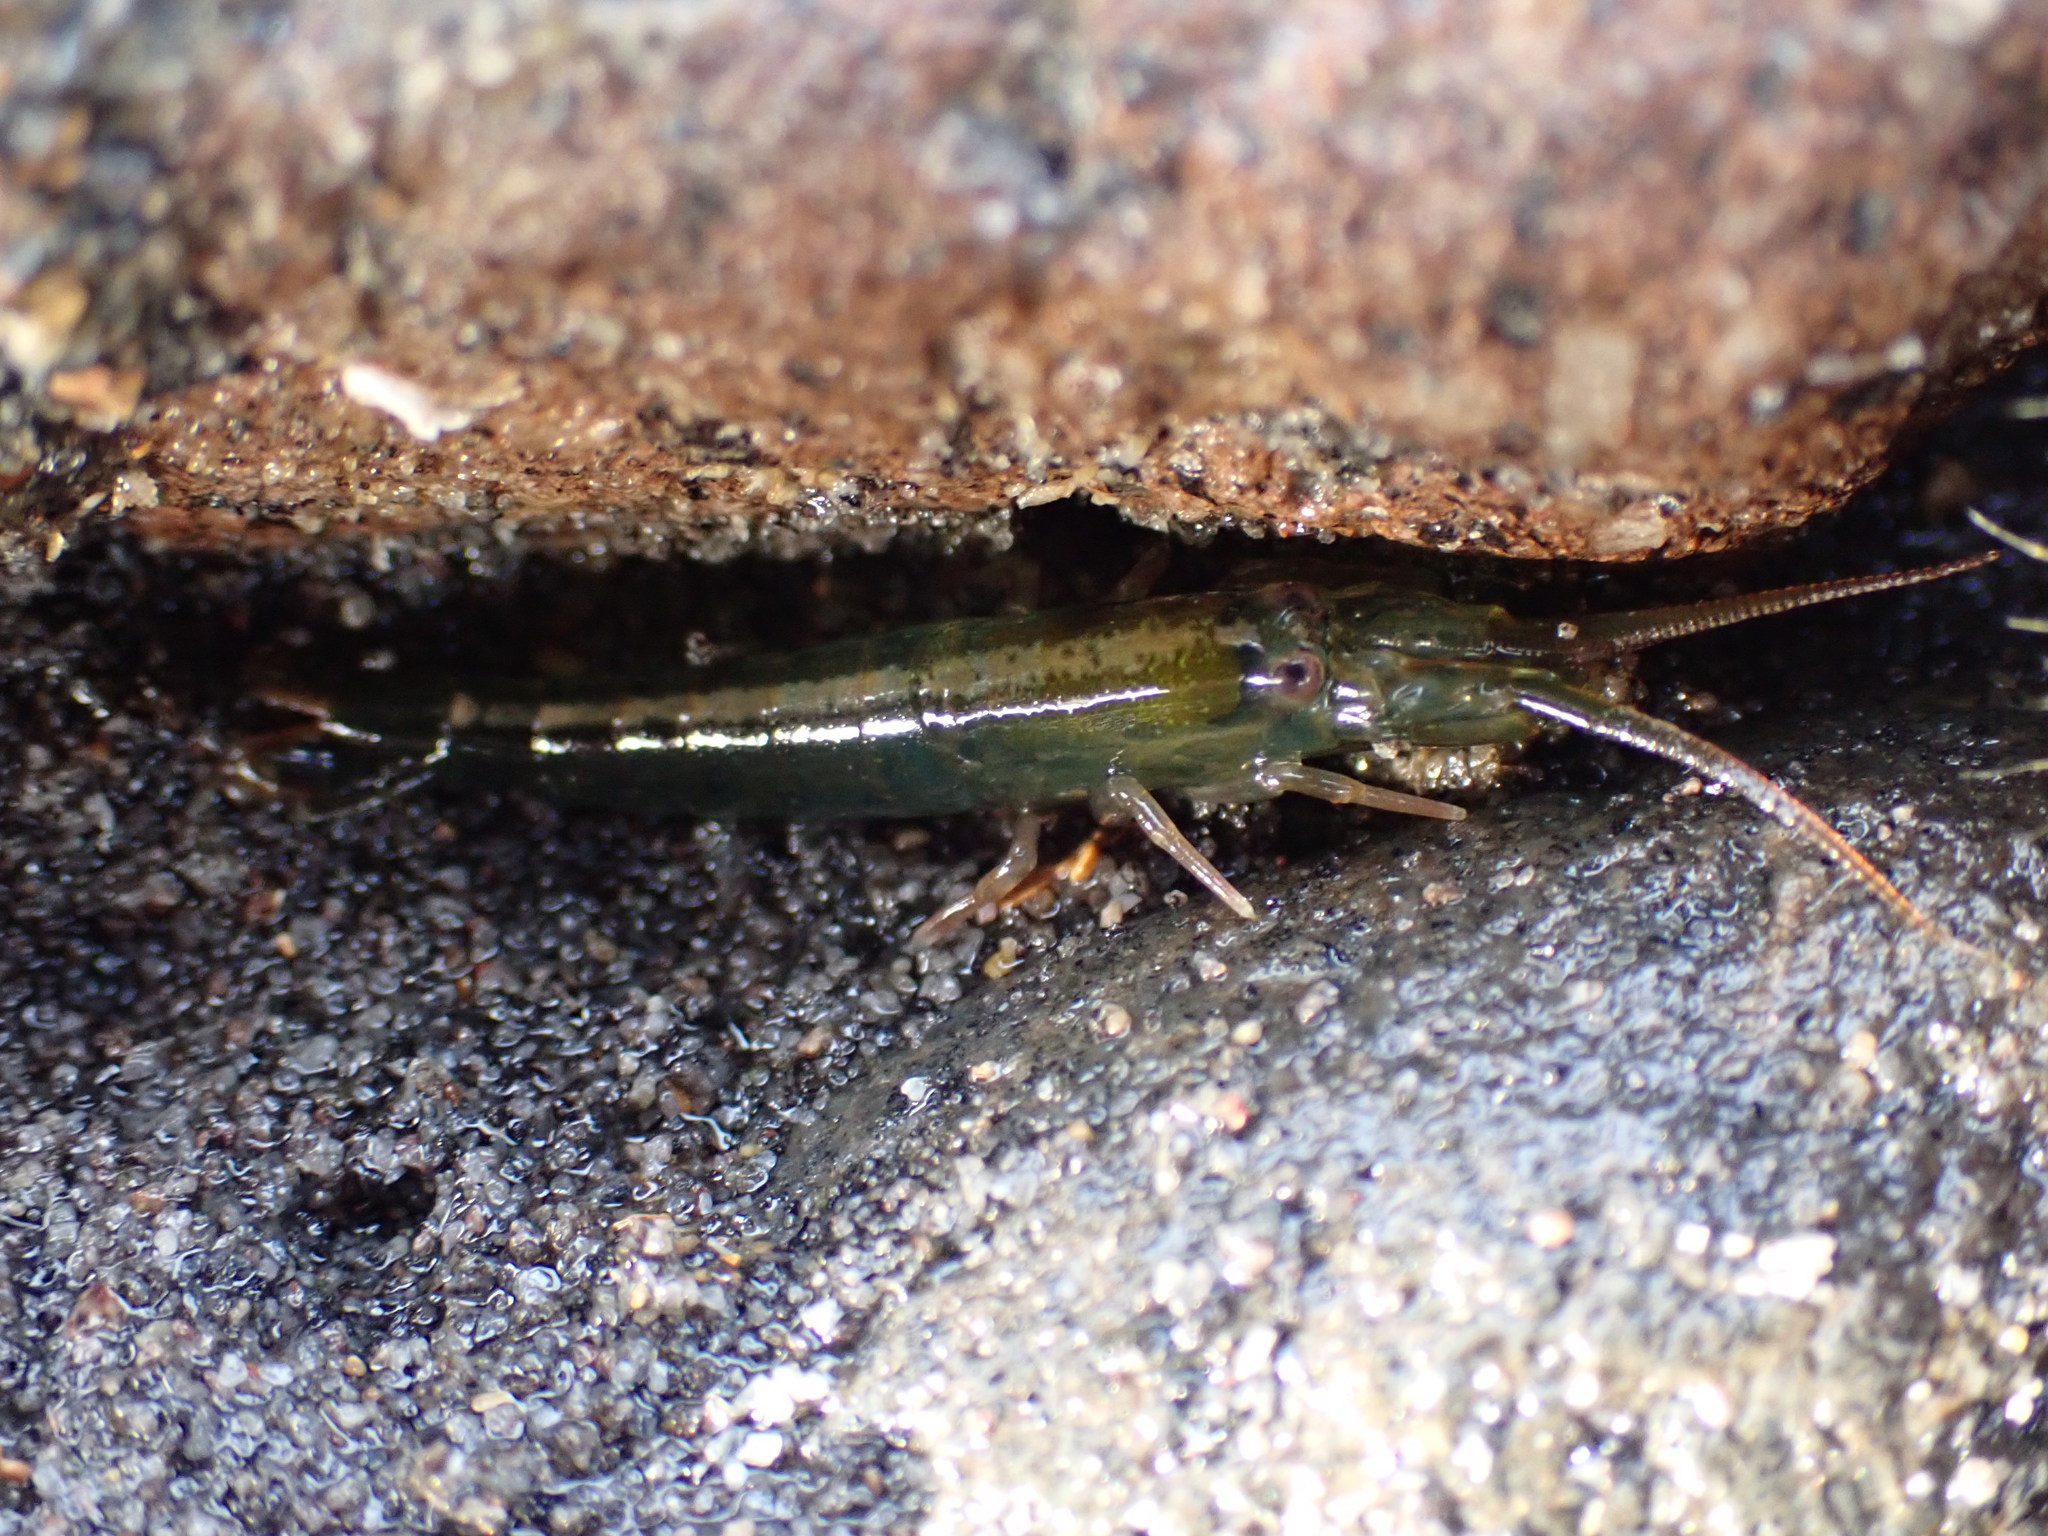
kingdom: Animalia
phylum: Arthropoda
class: Malacostraca
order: Decapoda
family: Alpheidae
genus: Betaeopsis
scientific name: Betaeopsis aequimanus
